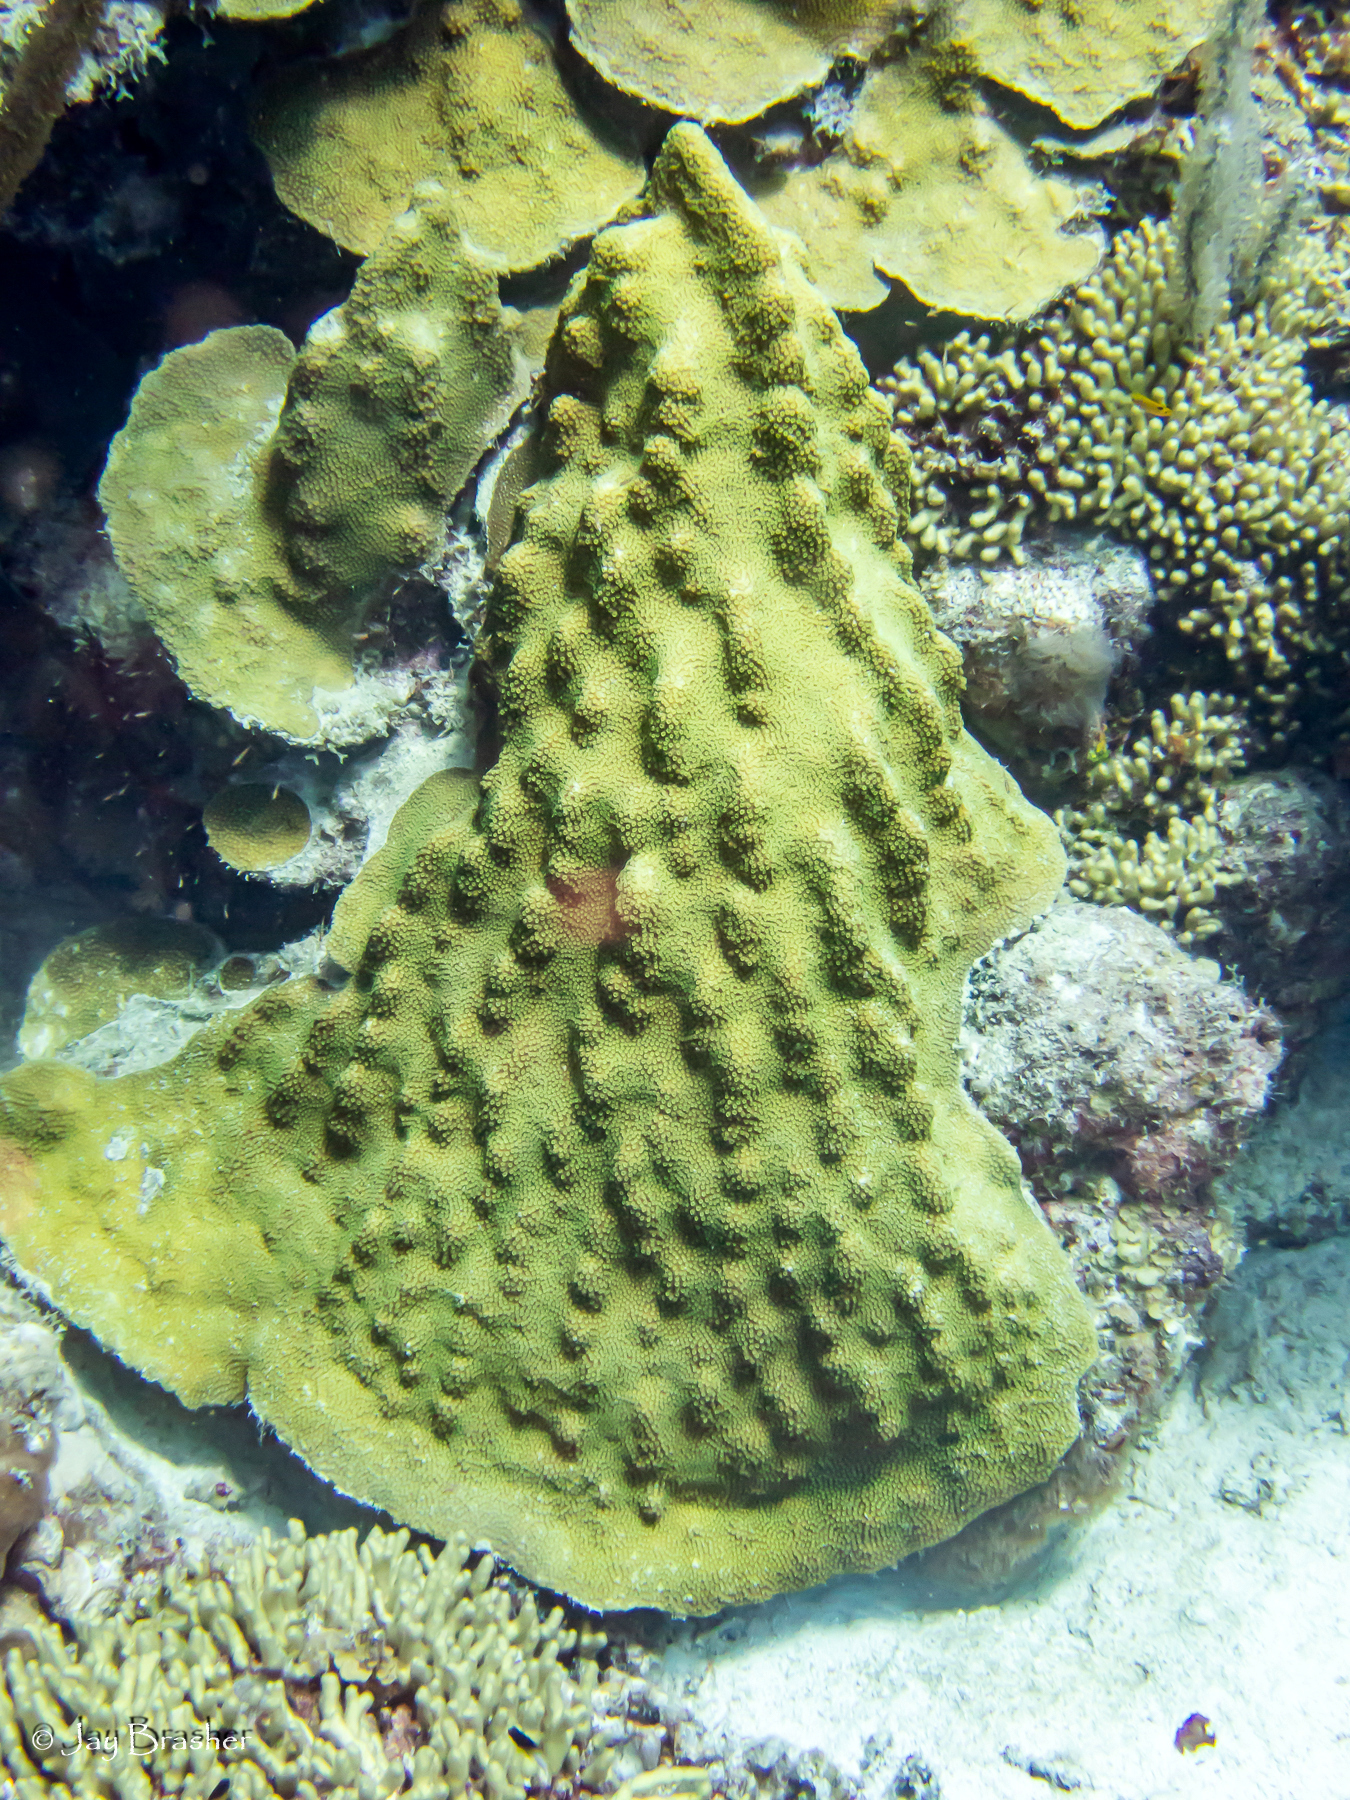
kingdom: Animalia
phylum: Cnidaria
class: Anthozoa
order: Scleractinia
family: Merulinidae
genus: Orbicella
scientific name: Orbicella faveolata
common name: Mountainous star coral
